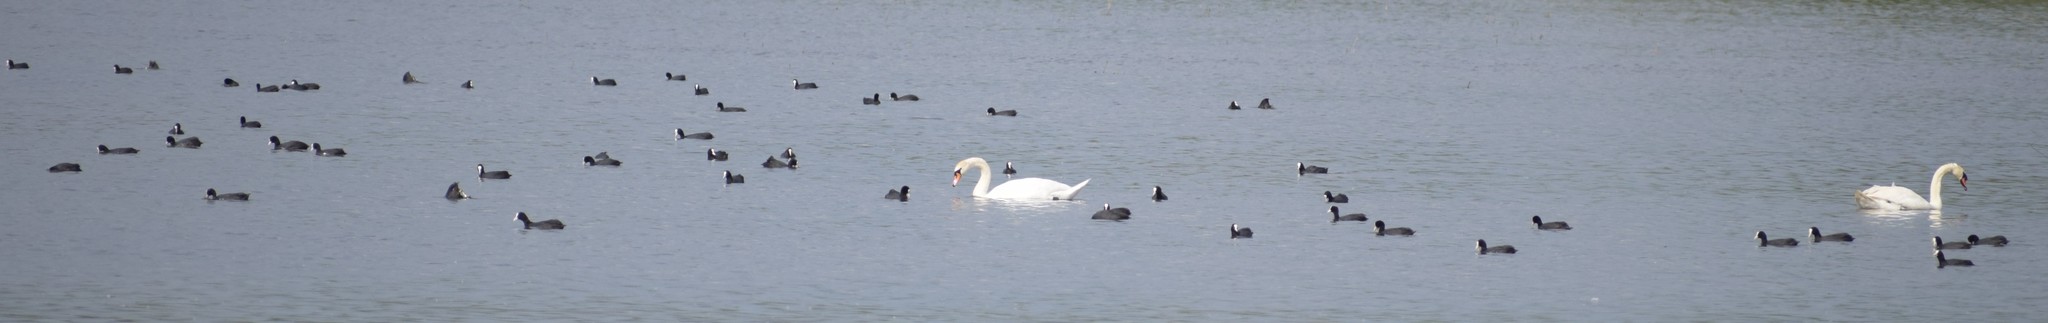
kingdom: Animalia
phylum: Chordata
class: Aves
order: Anseriformes
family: Anatidae
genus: Cygnus
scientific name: Cygnus olor
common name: Mute swan
